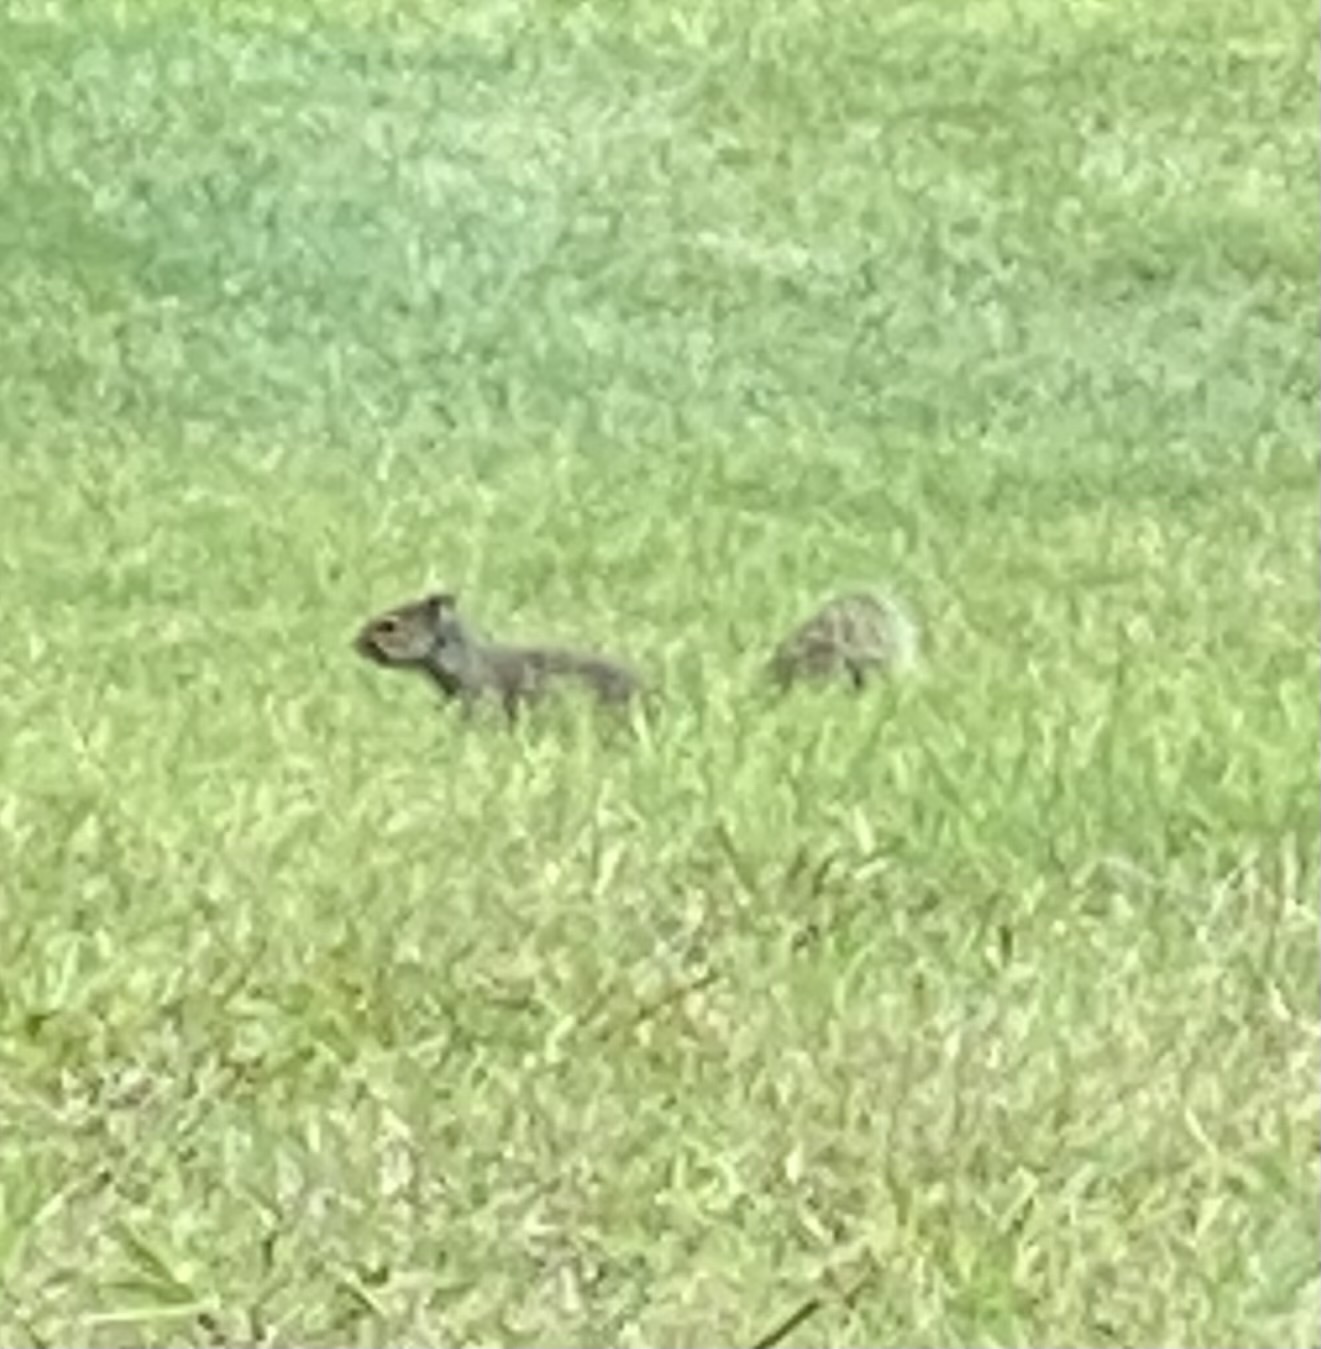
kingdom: Animalia
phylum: Chordata
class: Mammalia
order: Rodentia
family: Sciuridae
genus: Sciurus
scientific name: Sciurus carolinensis
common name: Eastern gray squirrel
